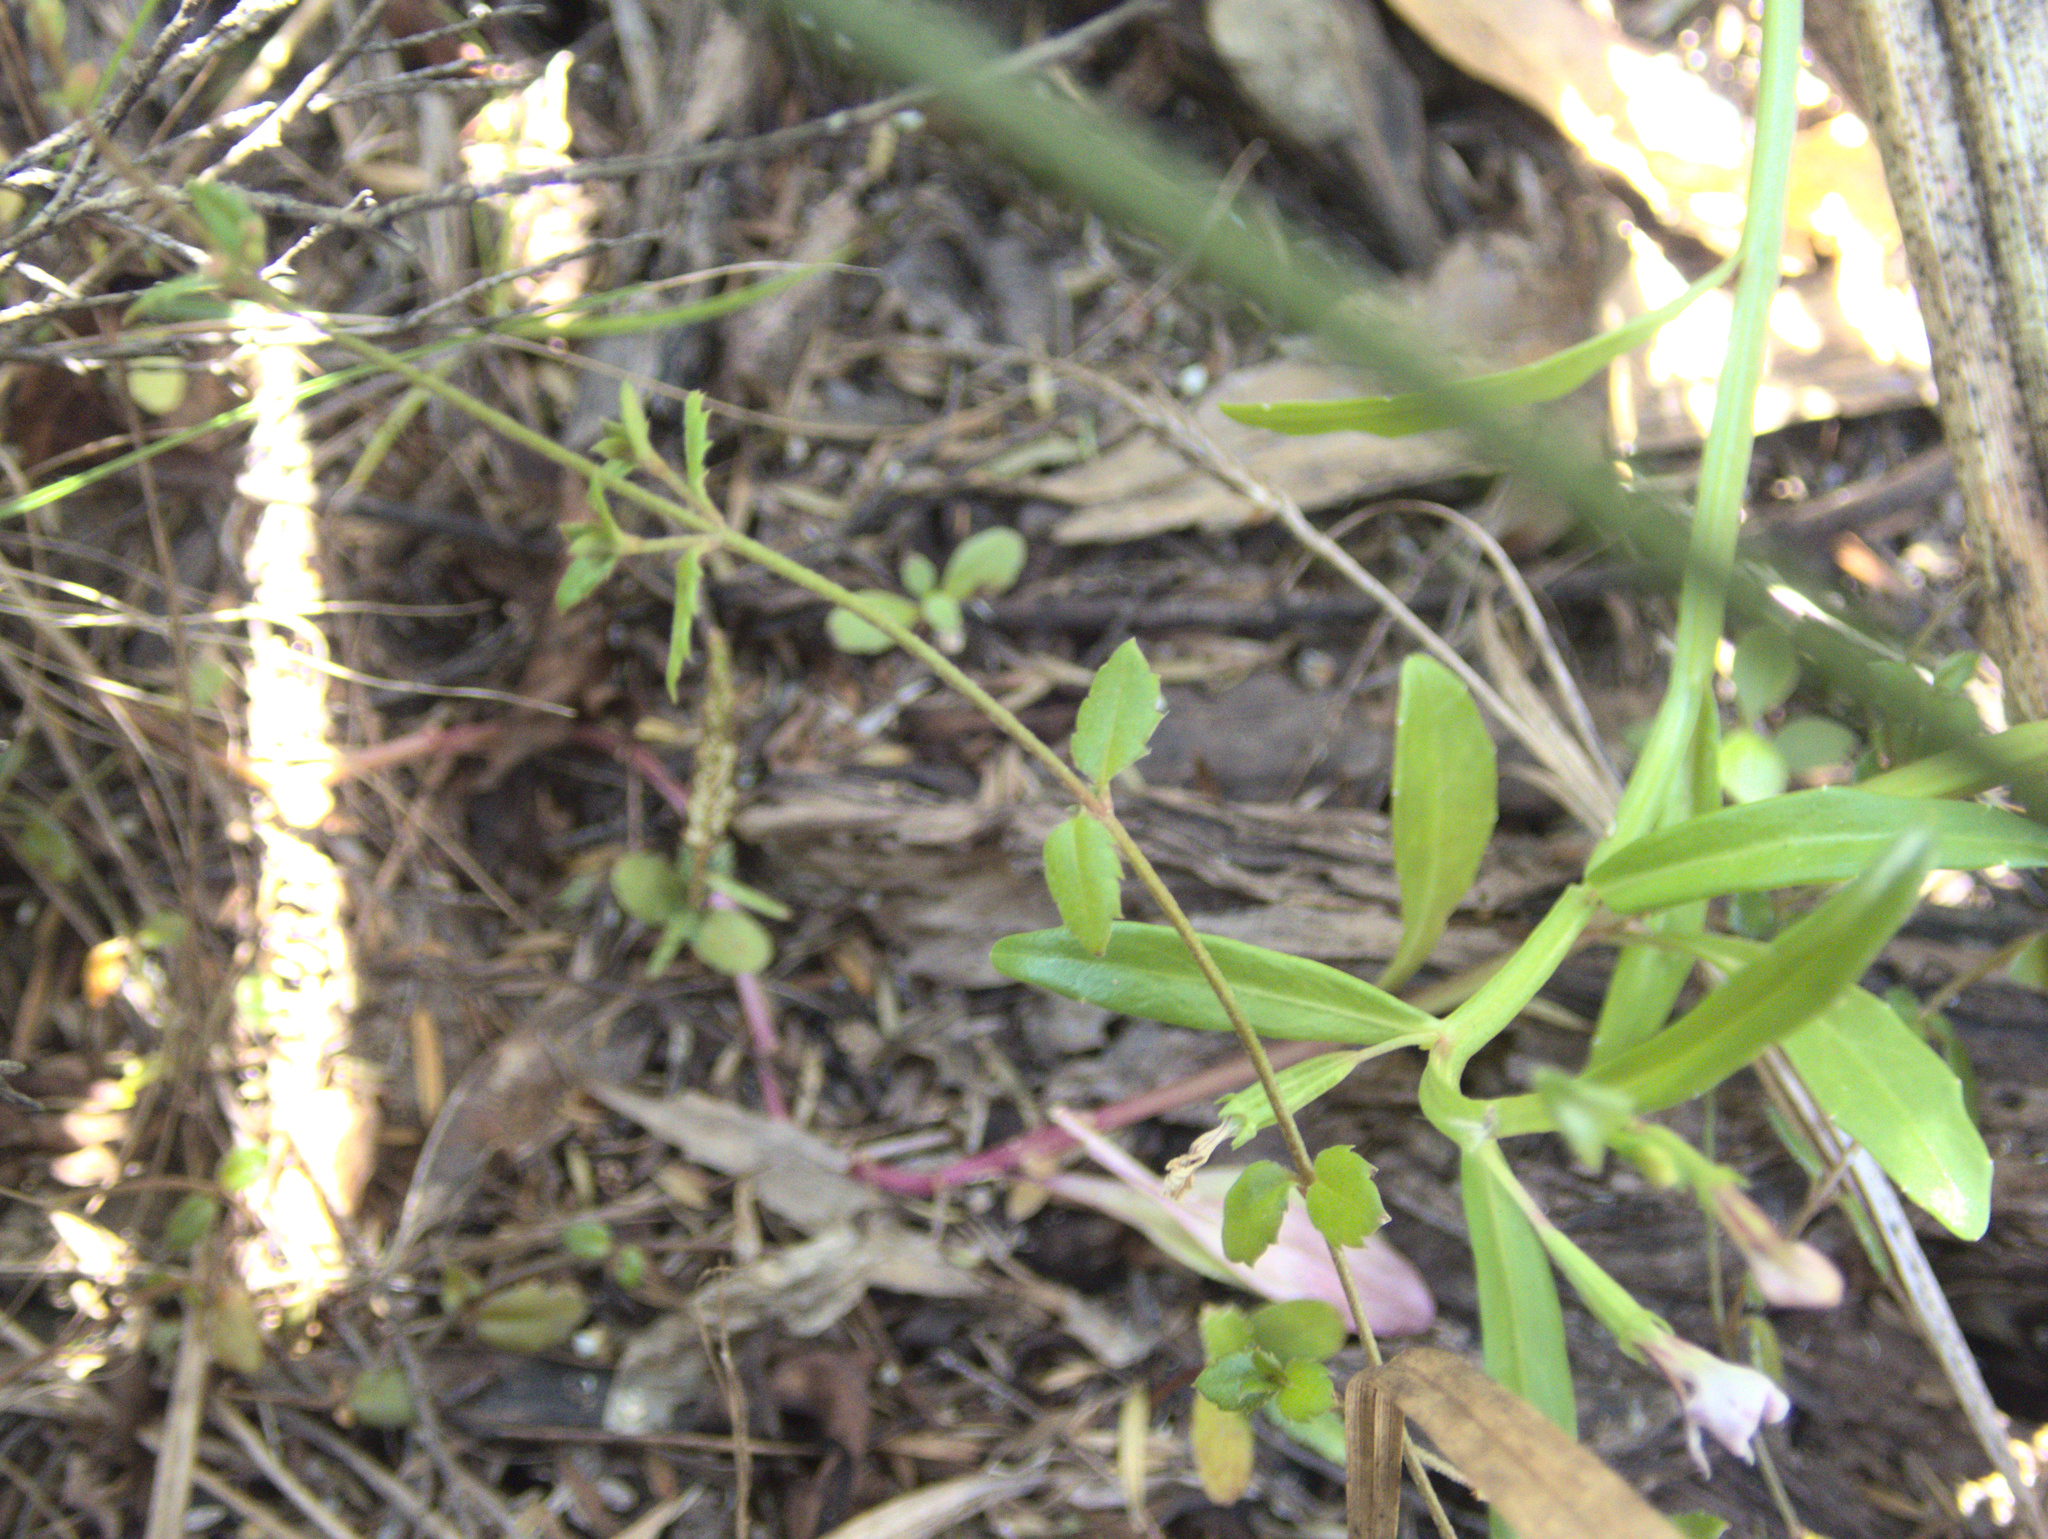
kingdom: Plantae
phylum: Tracheophyta
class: Magnoliopsida
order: Saxifragales
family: Haloragaceae
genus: Gonocarpus
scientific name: Gonocarpus incanus
